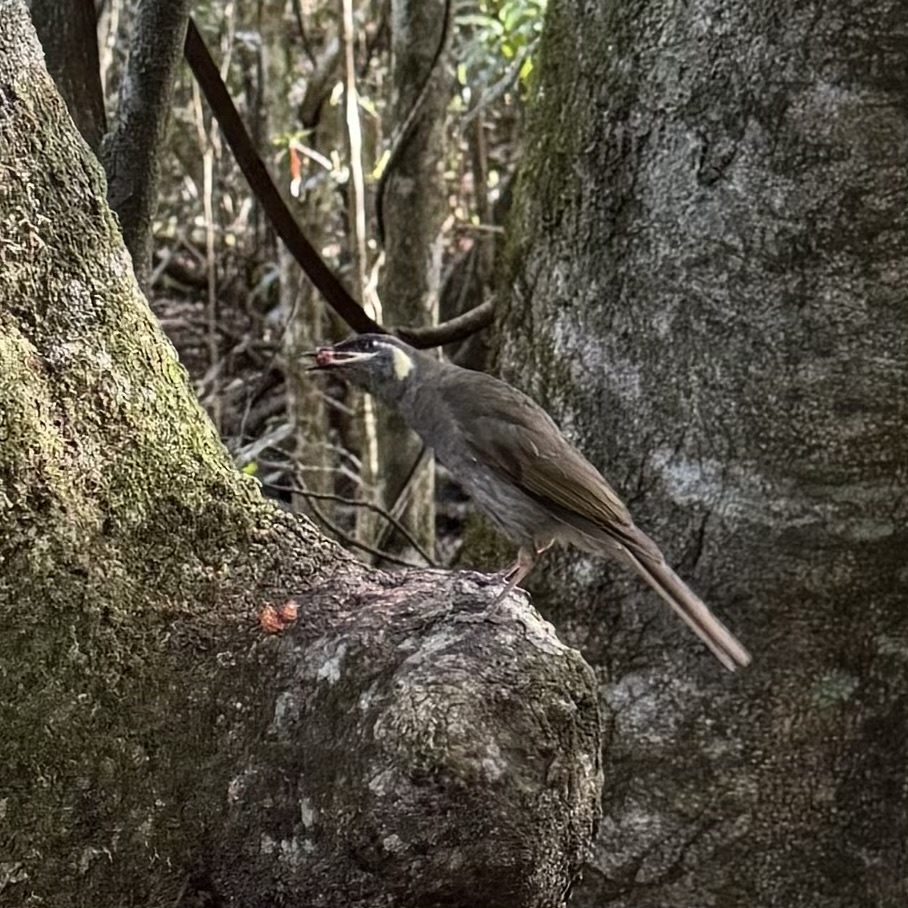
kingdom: Animalia
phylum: Chordata
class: Aves
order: Passeriformes
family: Meliphagidae
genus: Meliphaga
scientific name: Meliphaga lewinii
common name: Lewin's honeyeater
